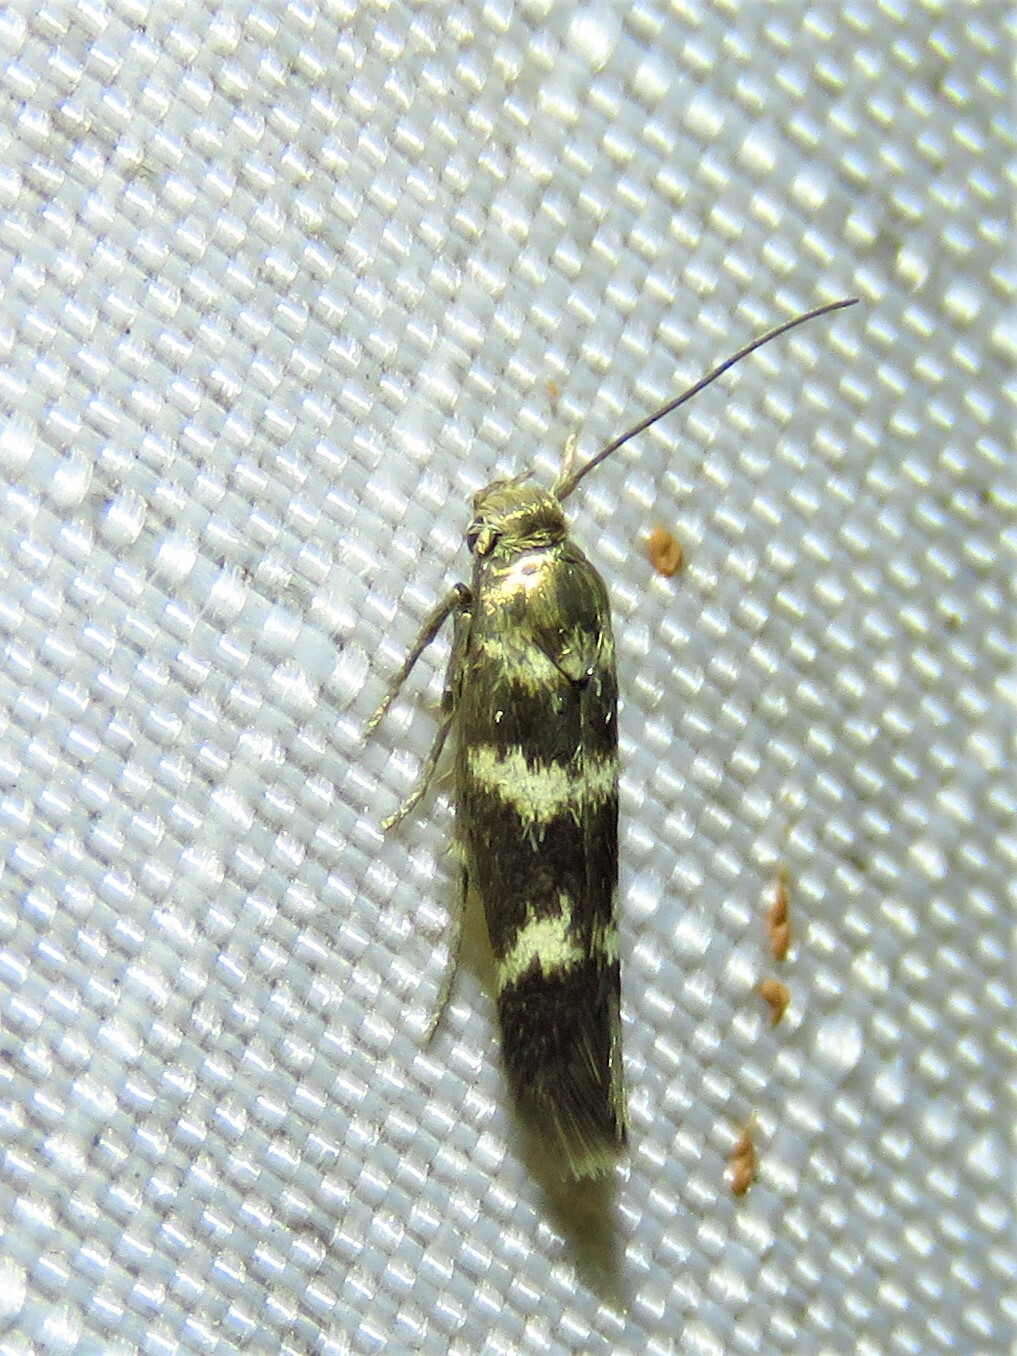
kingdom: Animalia
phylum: Arthropoda
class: Insecta
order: Lepidoptera
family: Scythrididae
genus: Scythris
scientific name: Scythris trivinctella
